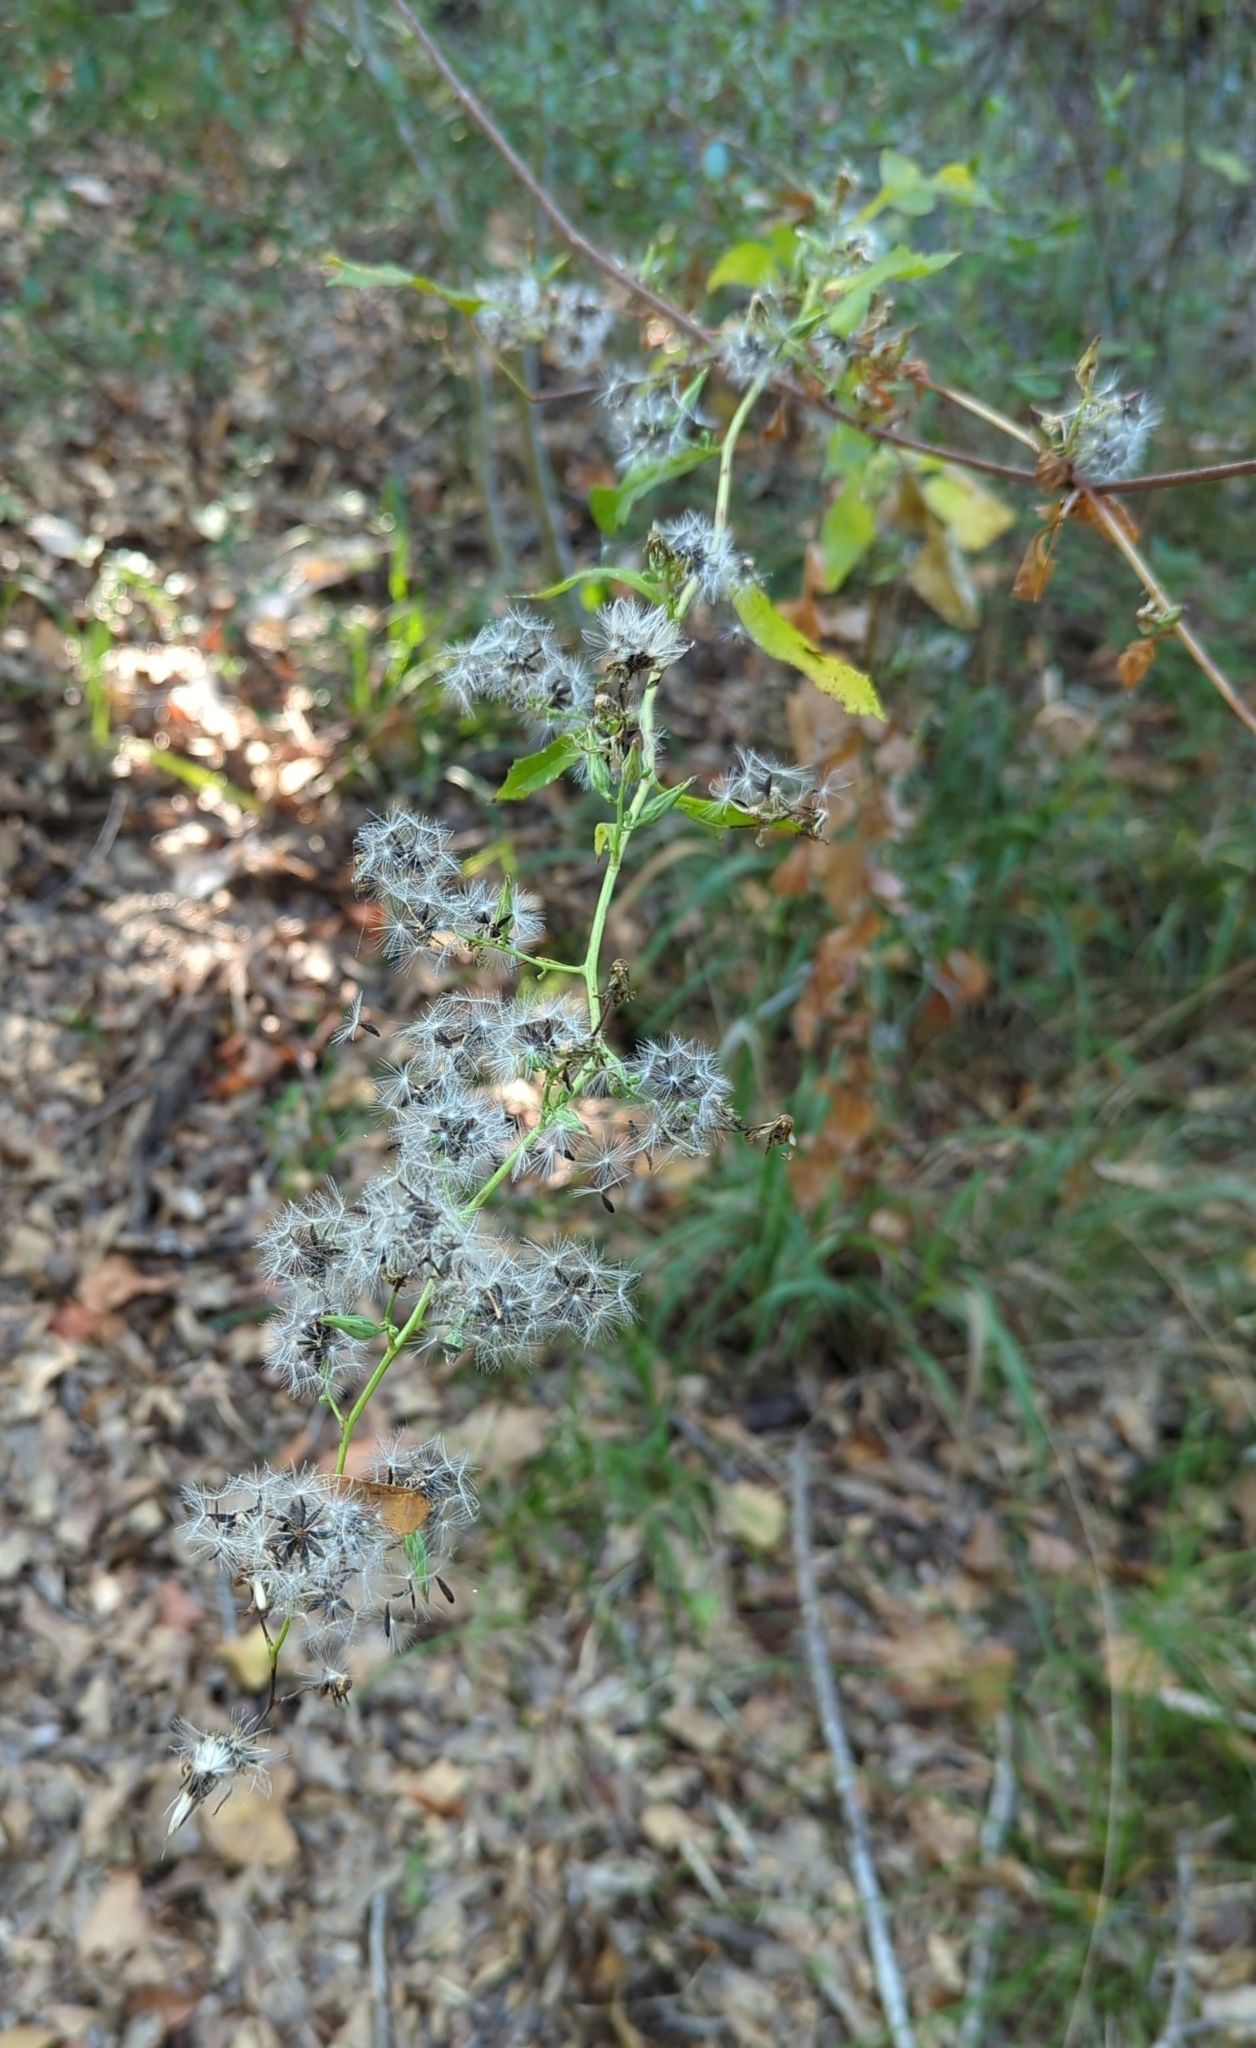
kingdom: Plantae
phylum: Tracheophyta
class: Magnoliopsida
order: Asterales
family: Asteraceae
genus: Symphyotrichum
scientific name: Symphyotrichum ericoides
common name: Heath aster
